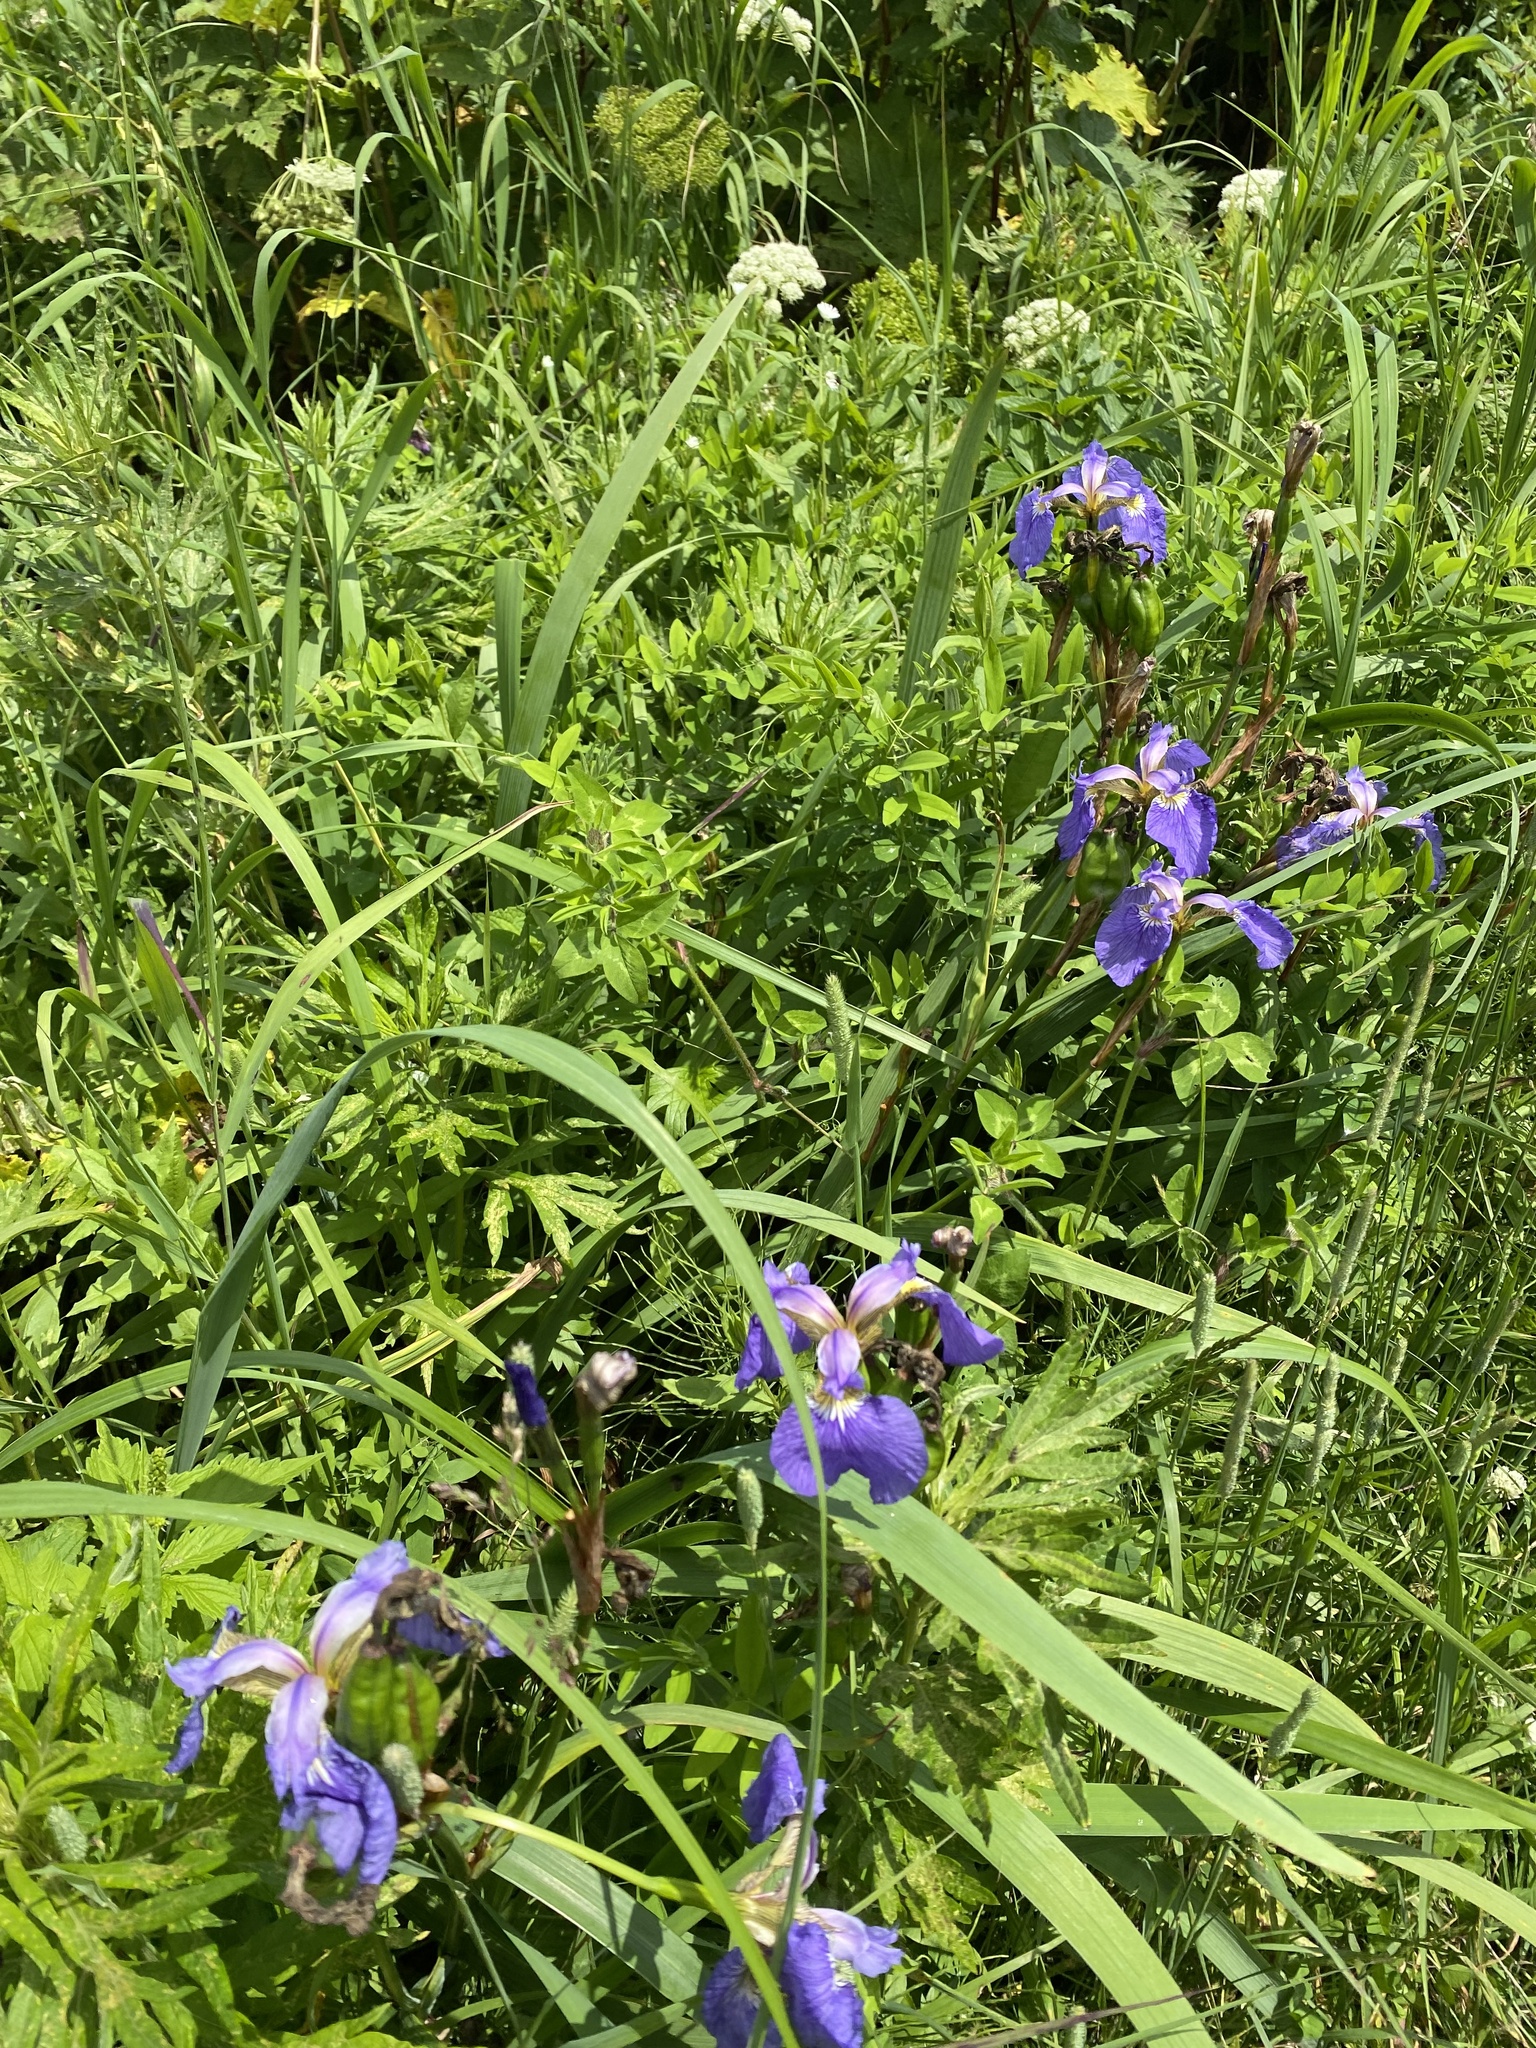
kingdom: Plantae
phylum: Tracheophyta
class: Liliopsida
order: Asparagales
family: Iridaceae
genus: Iris
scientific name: Iris setosa
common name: Arctic blue flag
